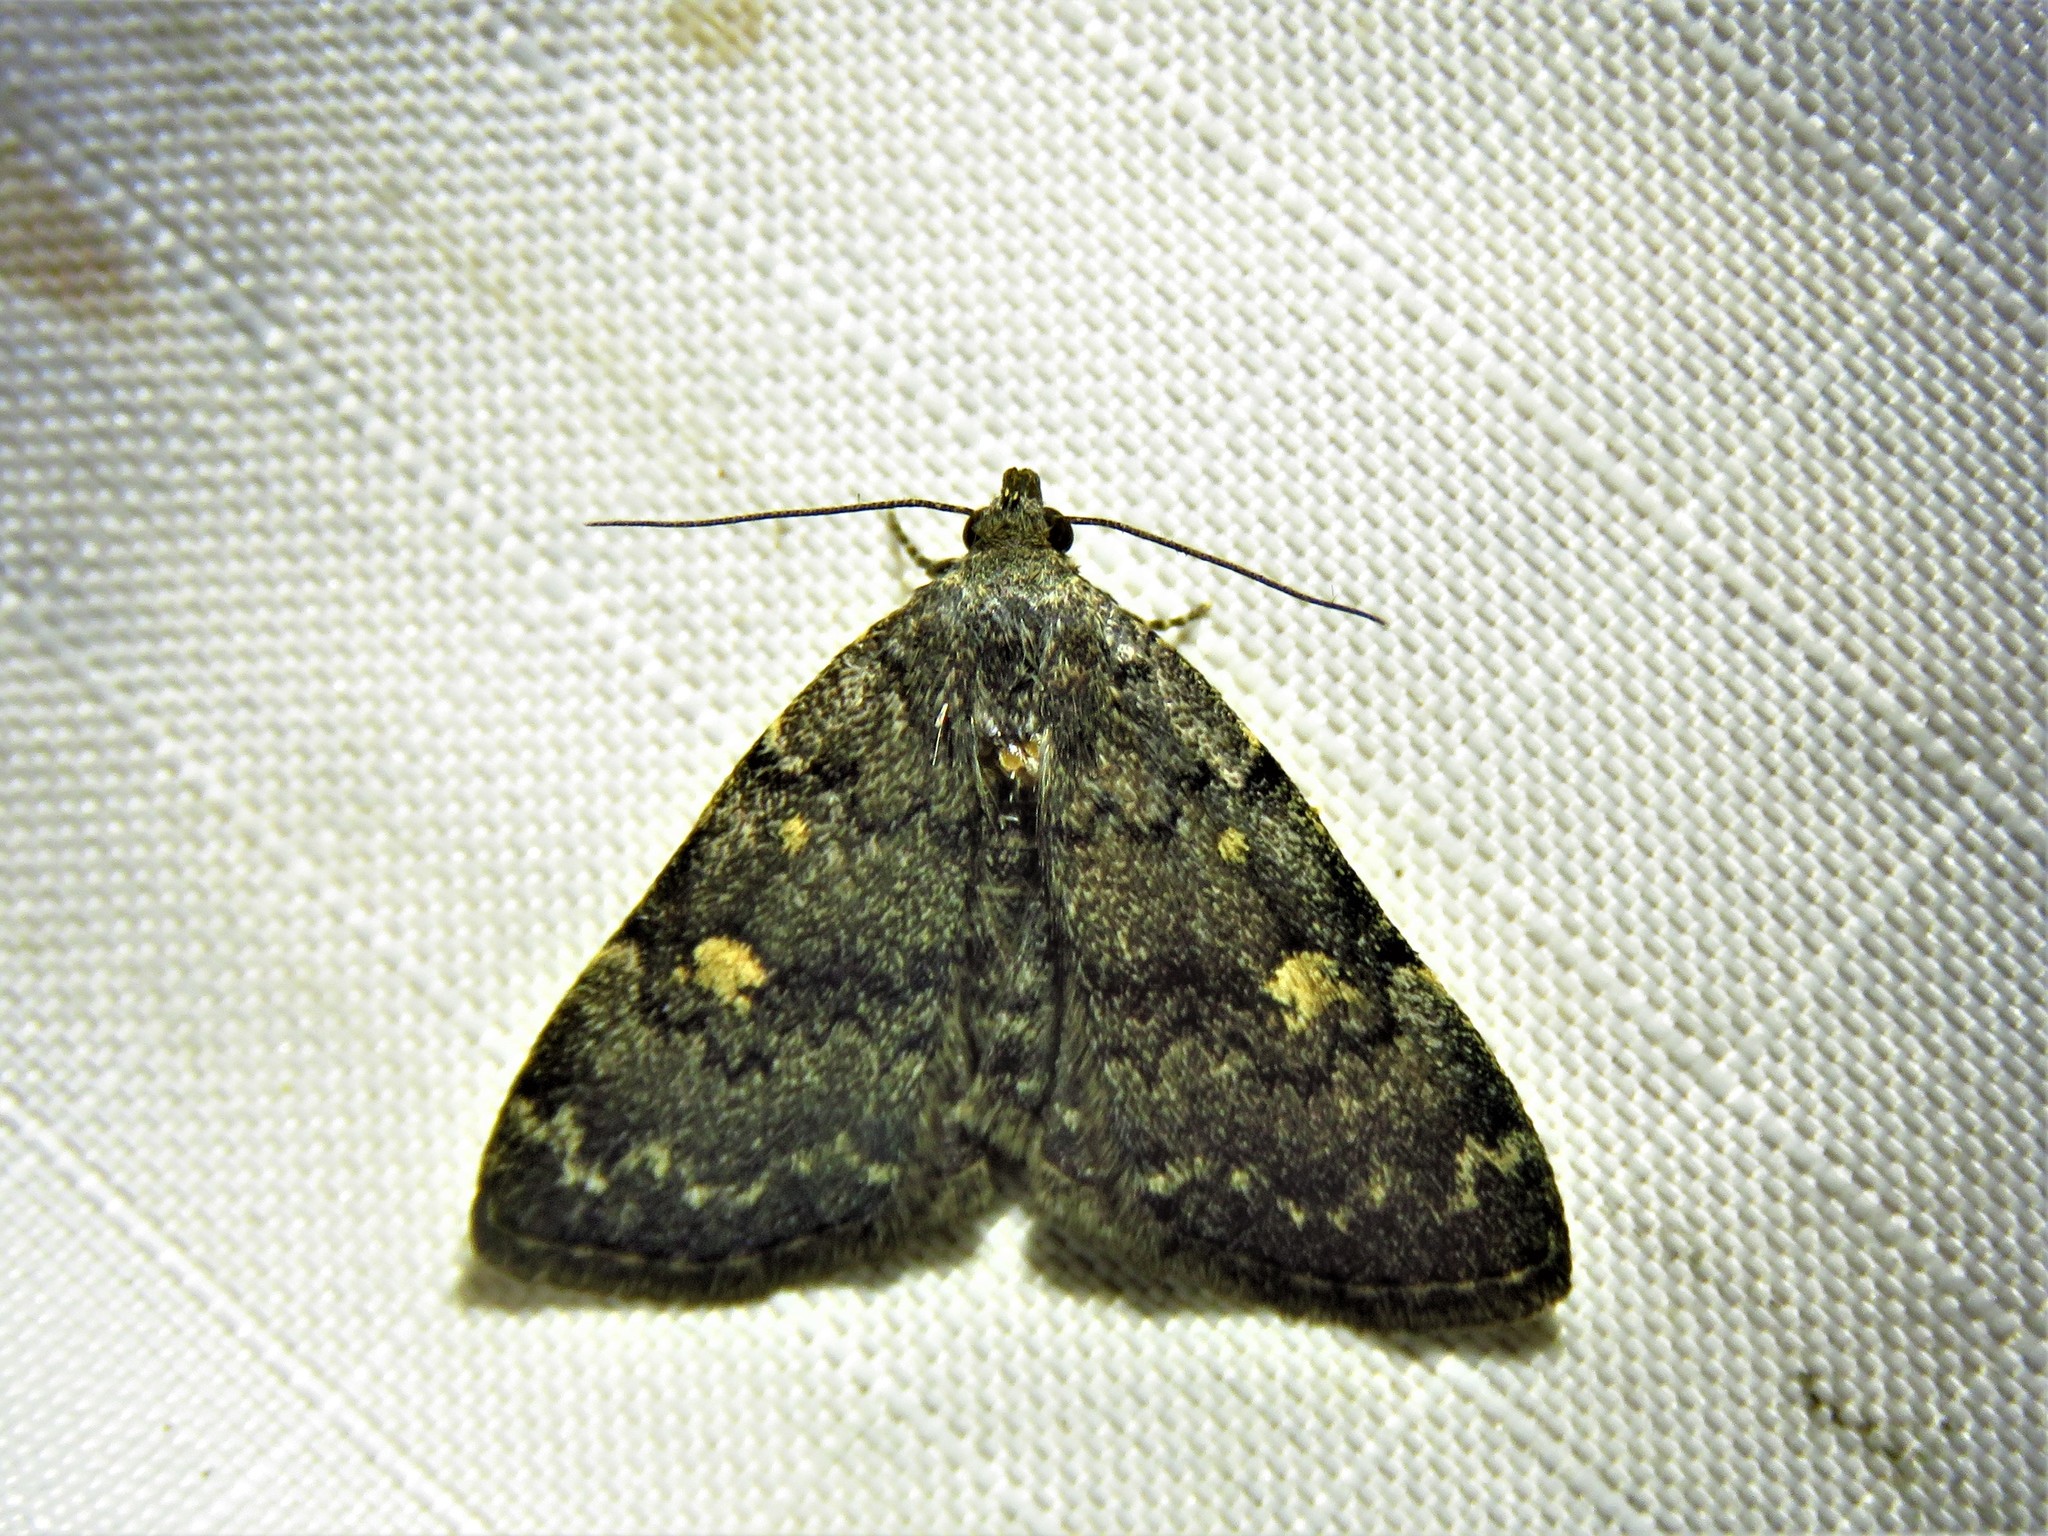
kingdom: Animalia
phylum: Arthropoda
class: Insecta
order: Lepidoptera
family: Erebidae
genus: Idia
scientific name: Idia aemula
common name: Common idia moth
